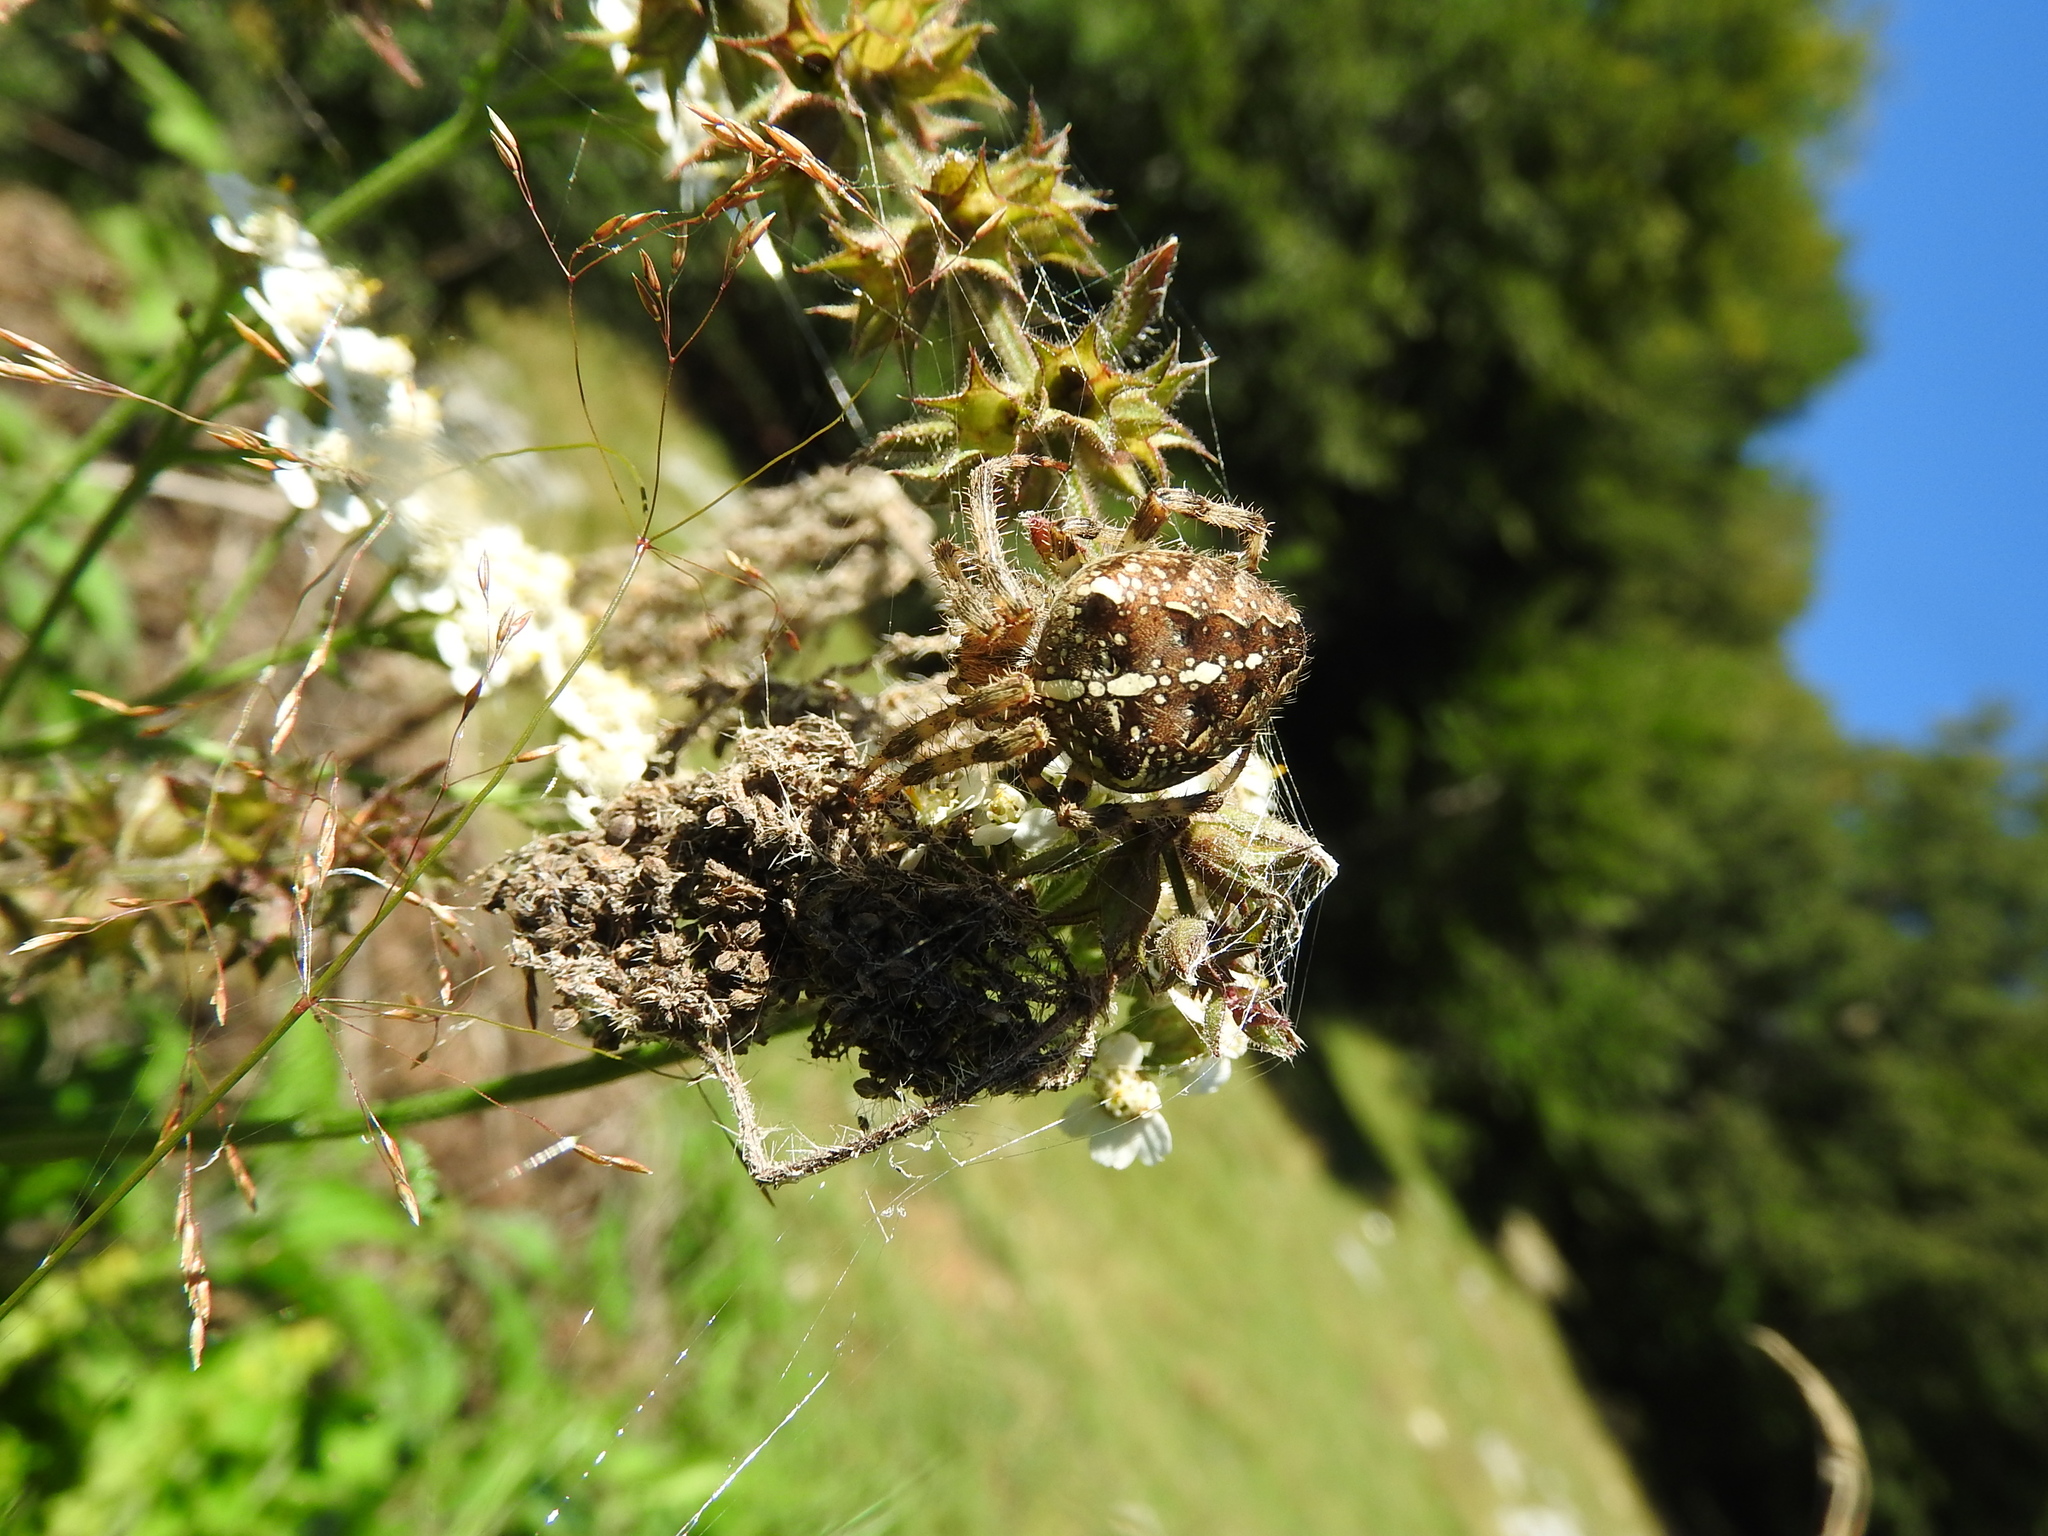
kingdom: Animalia
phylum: Arthropoda
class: Arachnida
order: Araneae
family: Araneidae
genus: Araneus
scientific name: Araneus diadematus
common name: Cross orbweaver
